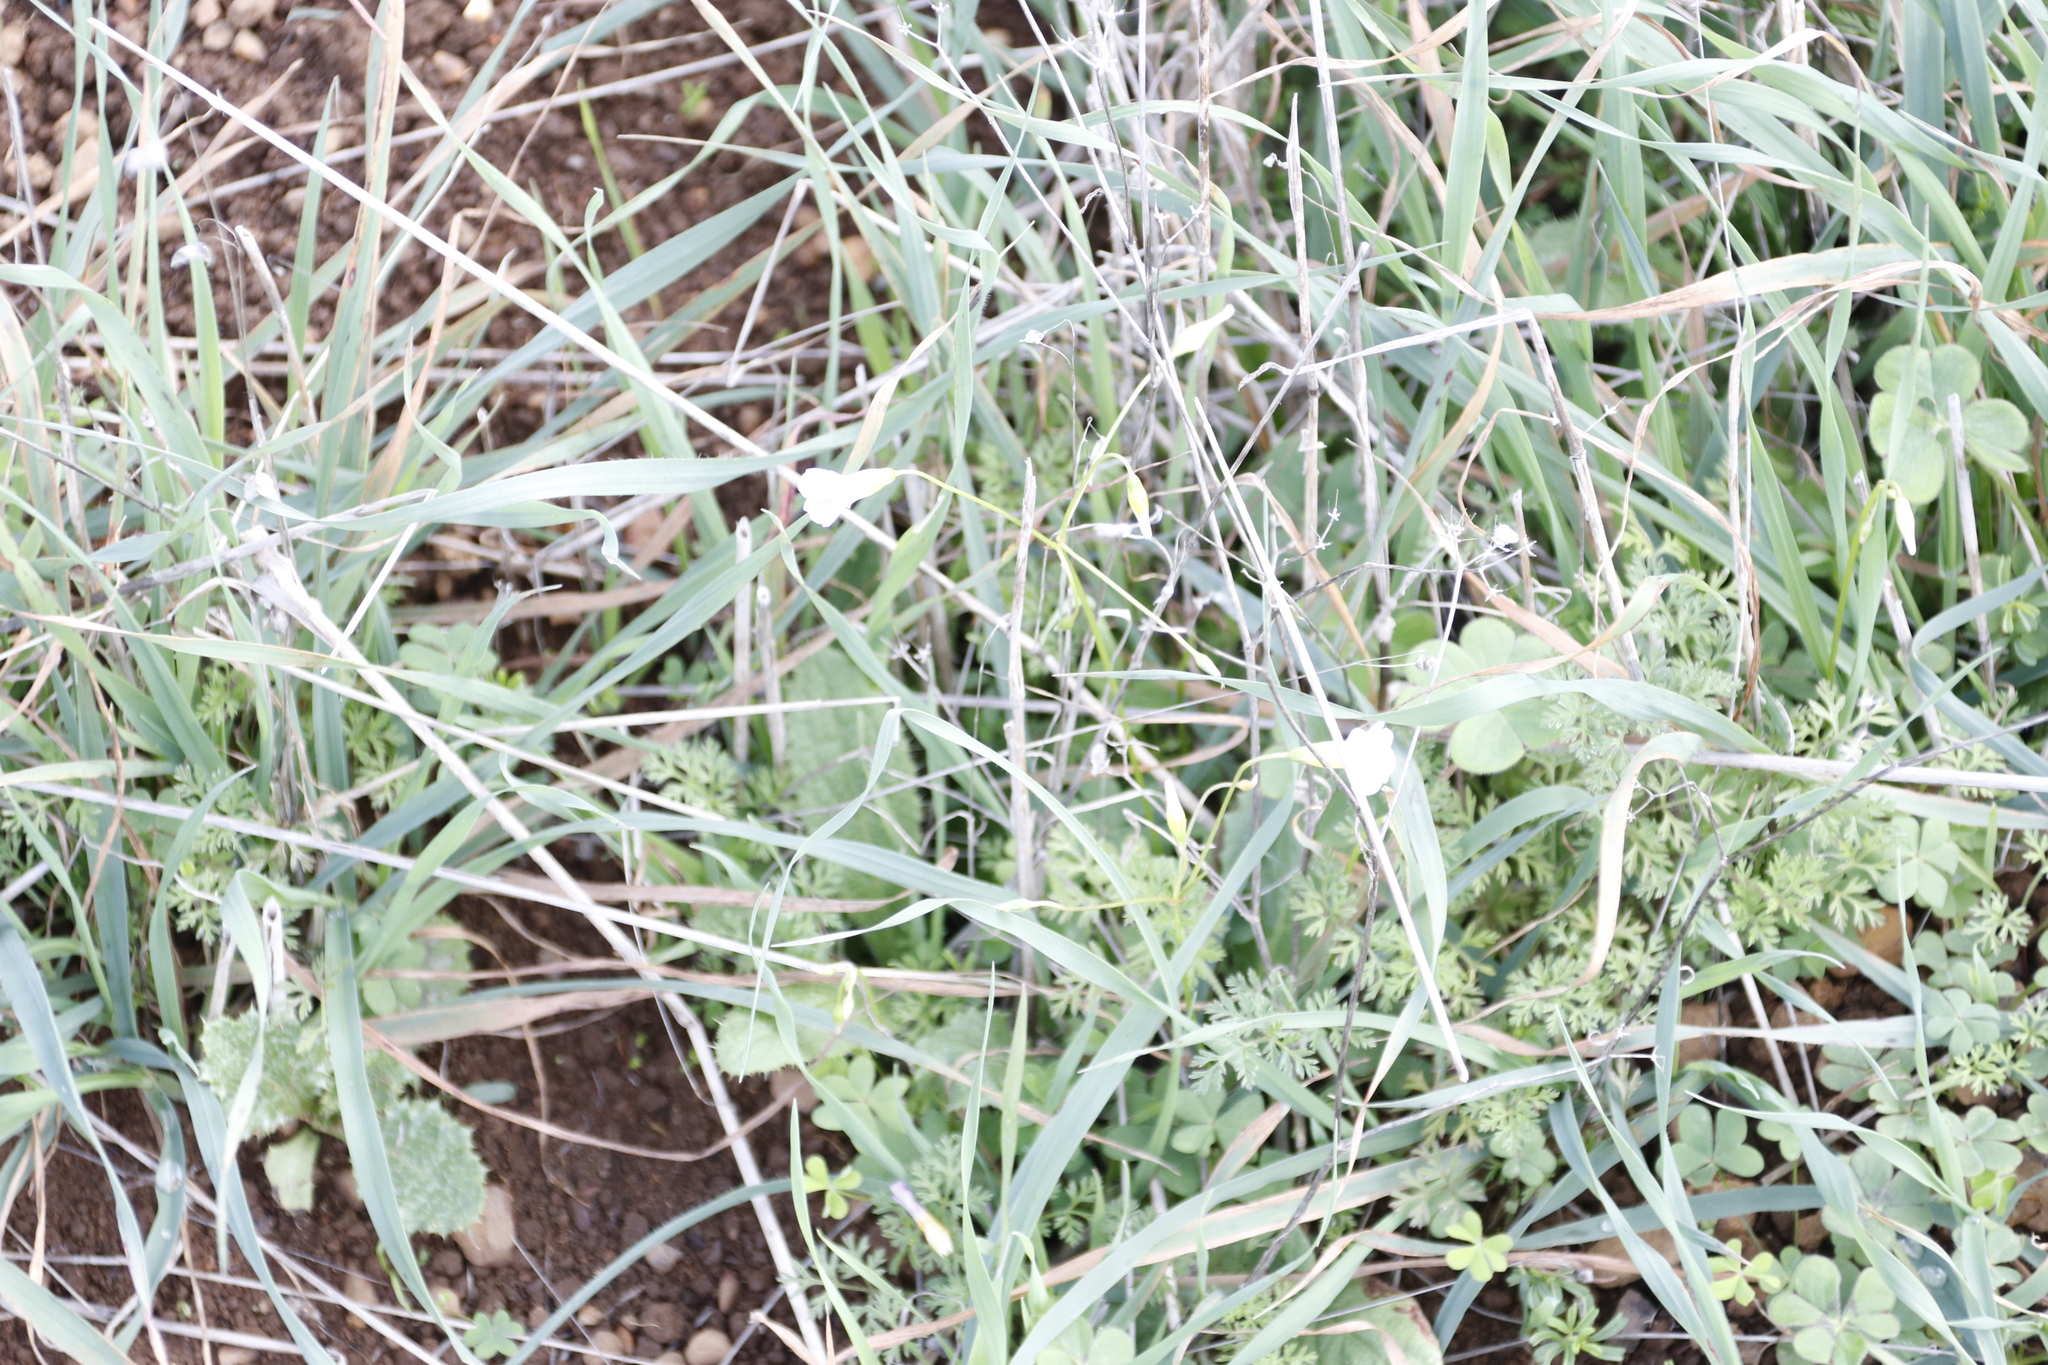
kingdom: Plantae
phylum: Tracheophyta
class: Magnoliopsida
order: Oxalidales
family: Oxalidaceae
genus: Oxalis
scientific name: Oxalis caprina
